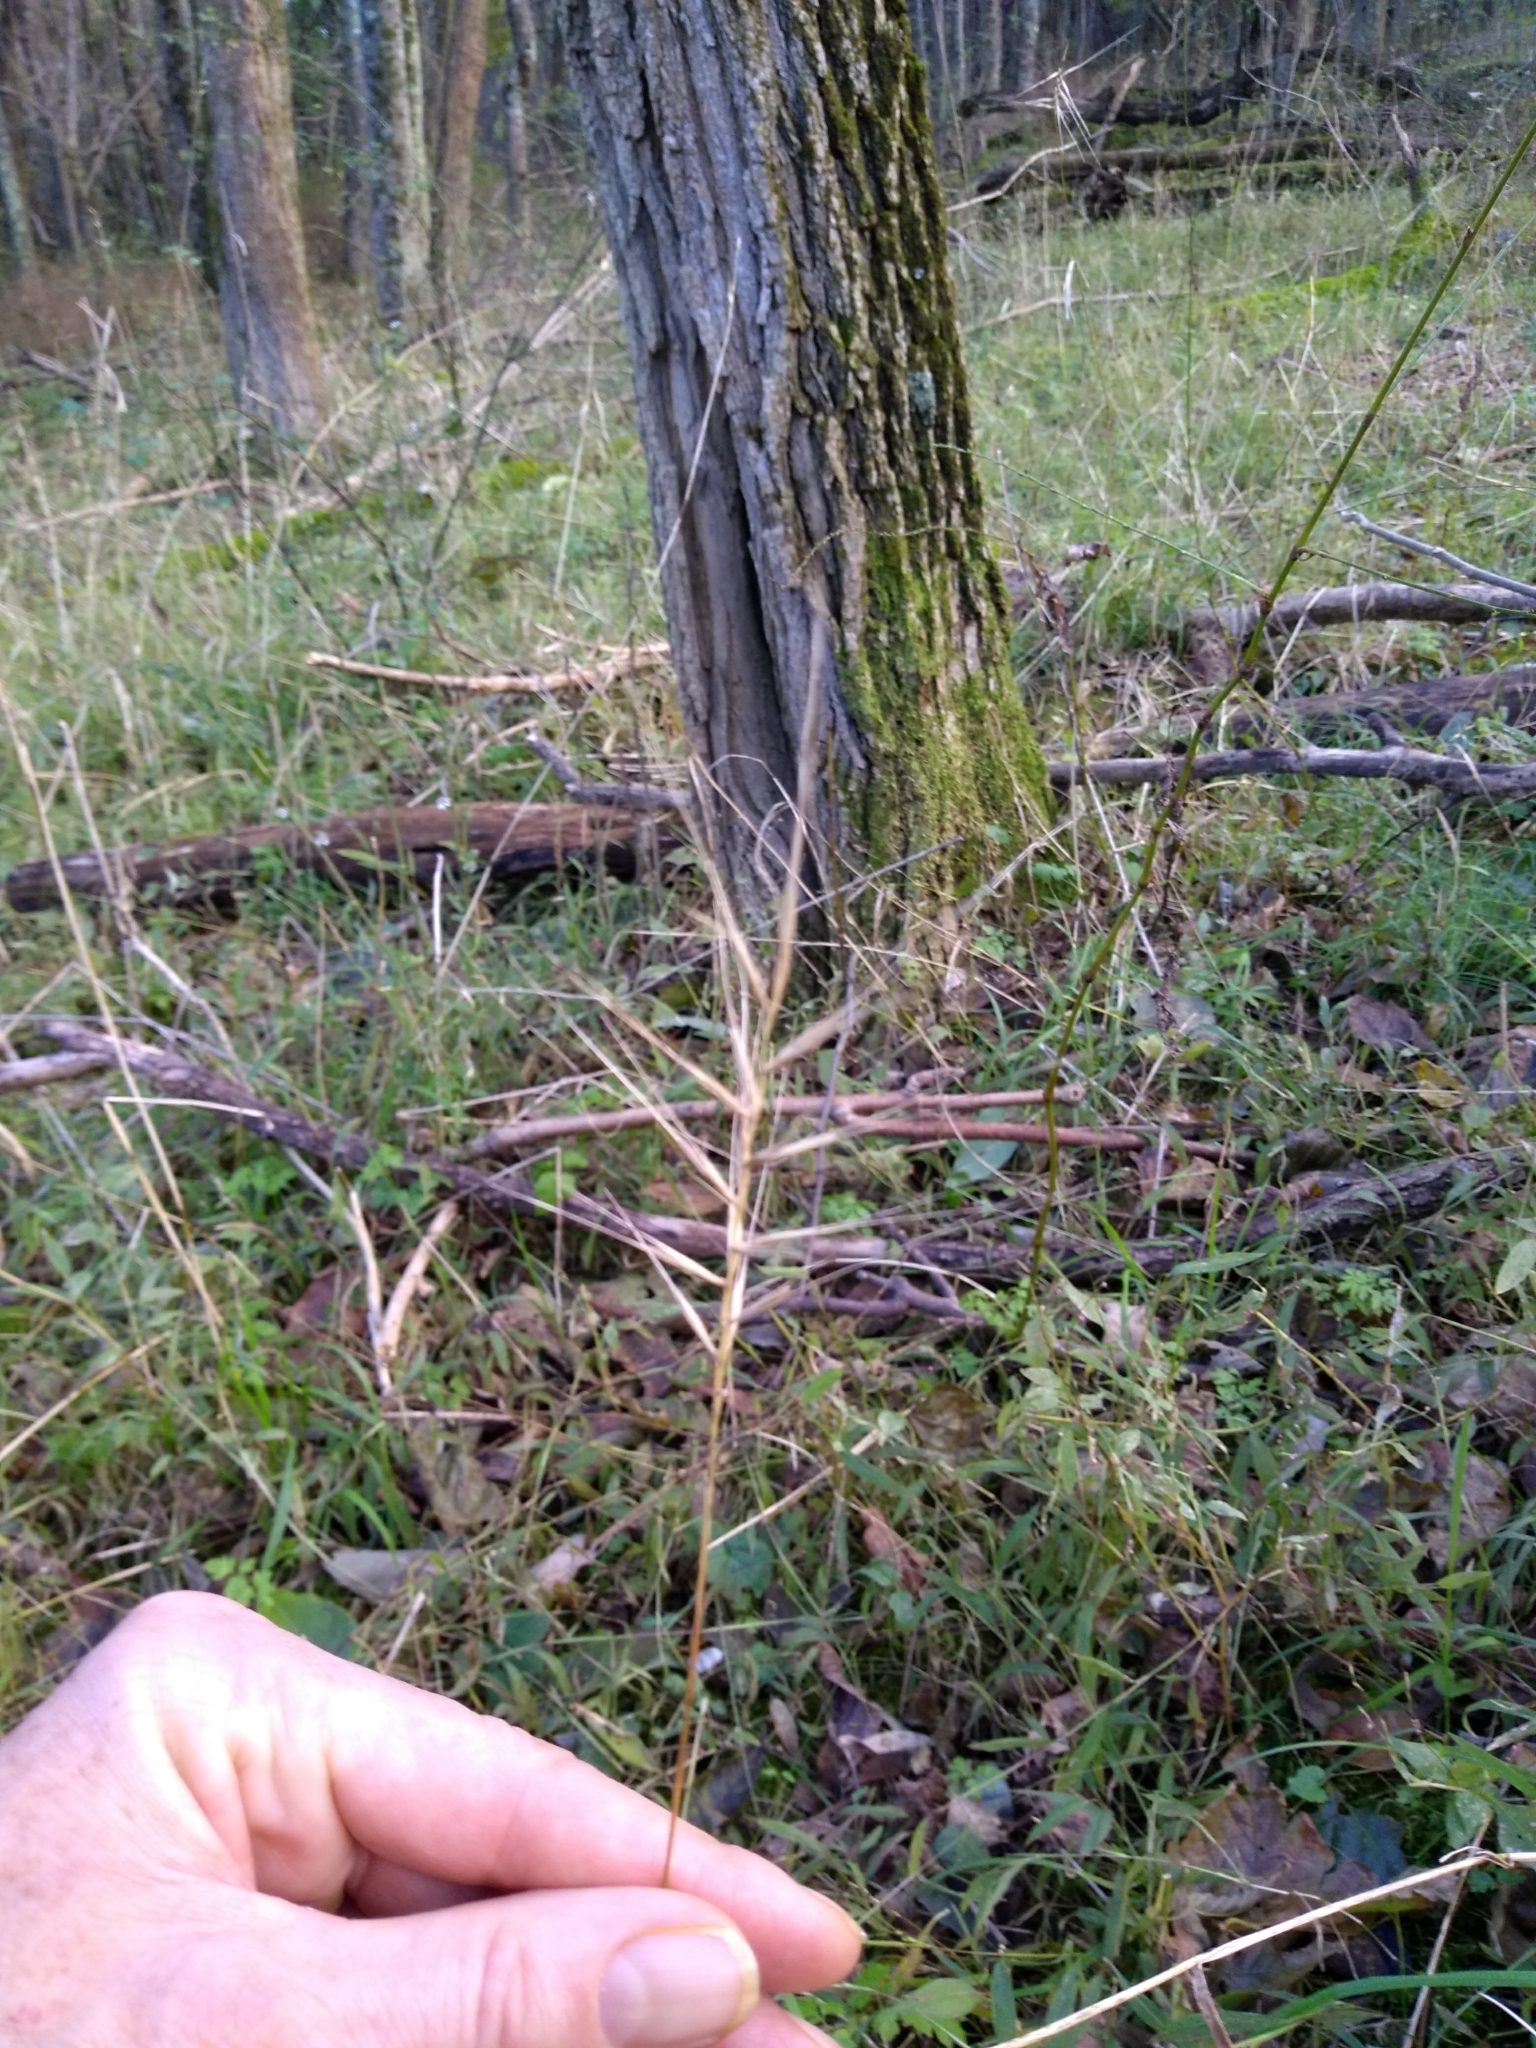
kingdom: Plantae
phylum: Tracheophyta
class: Liliopsida
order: Poales
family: Poaceae
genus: Elymus
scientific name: Elymus hystrix
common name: Bottlebrush grass
